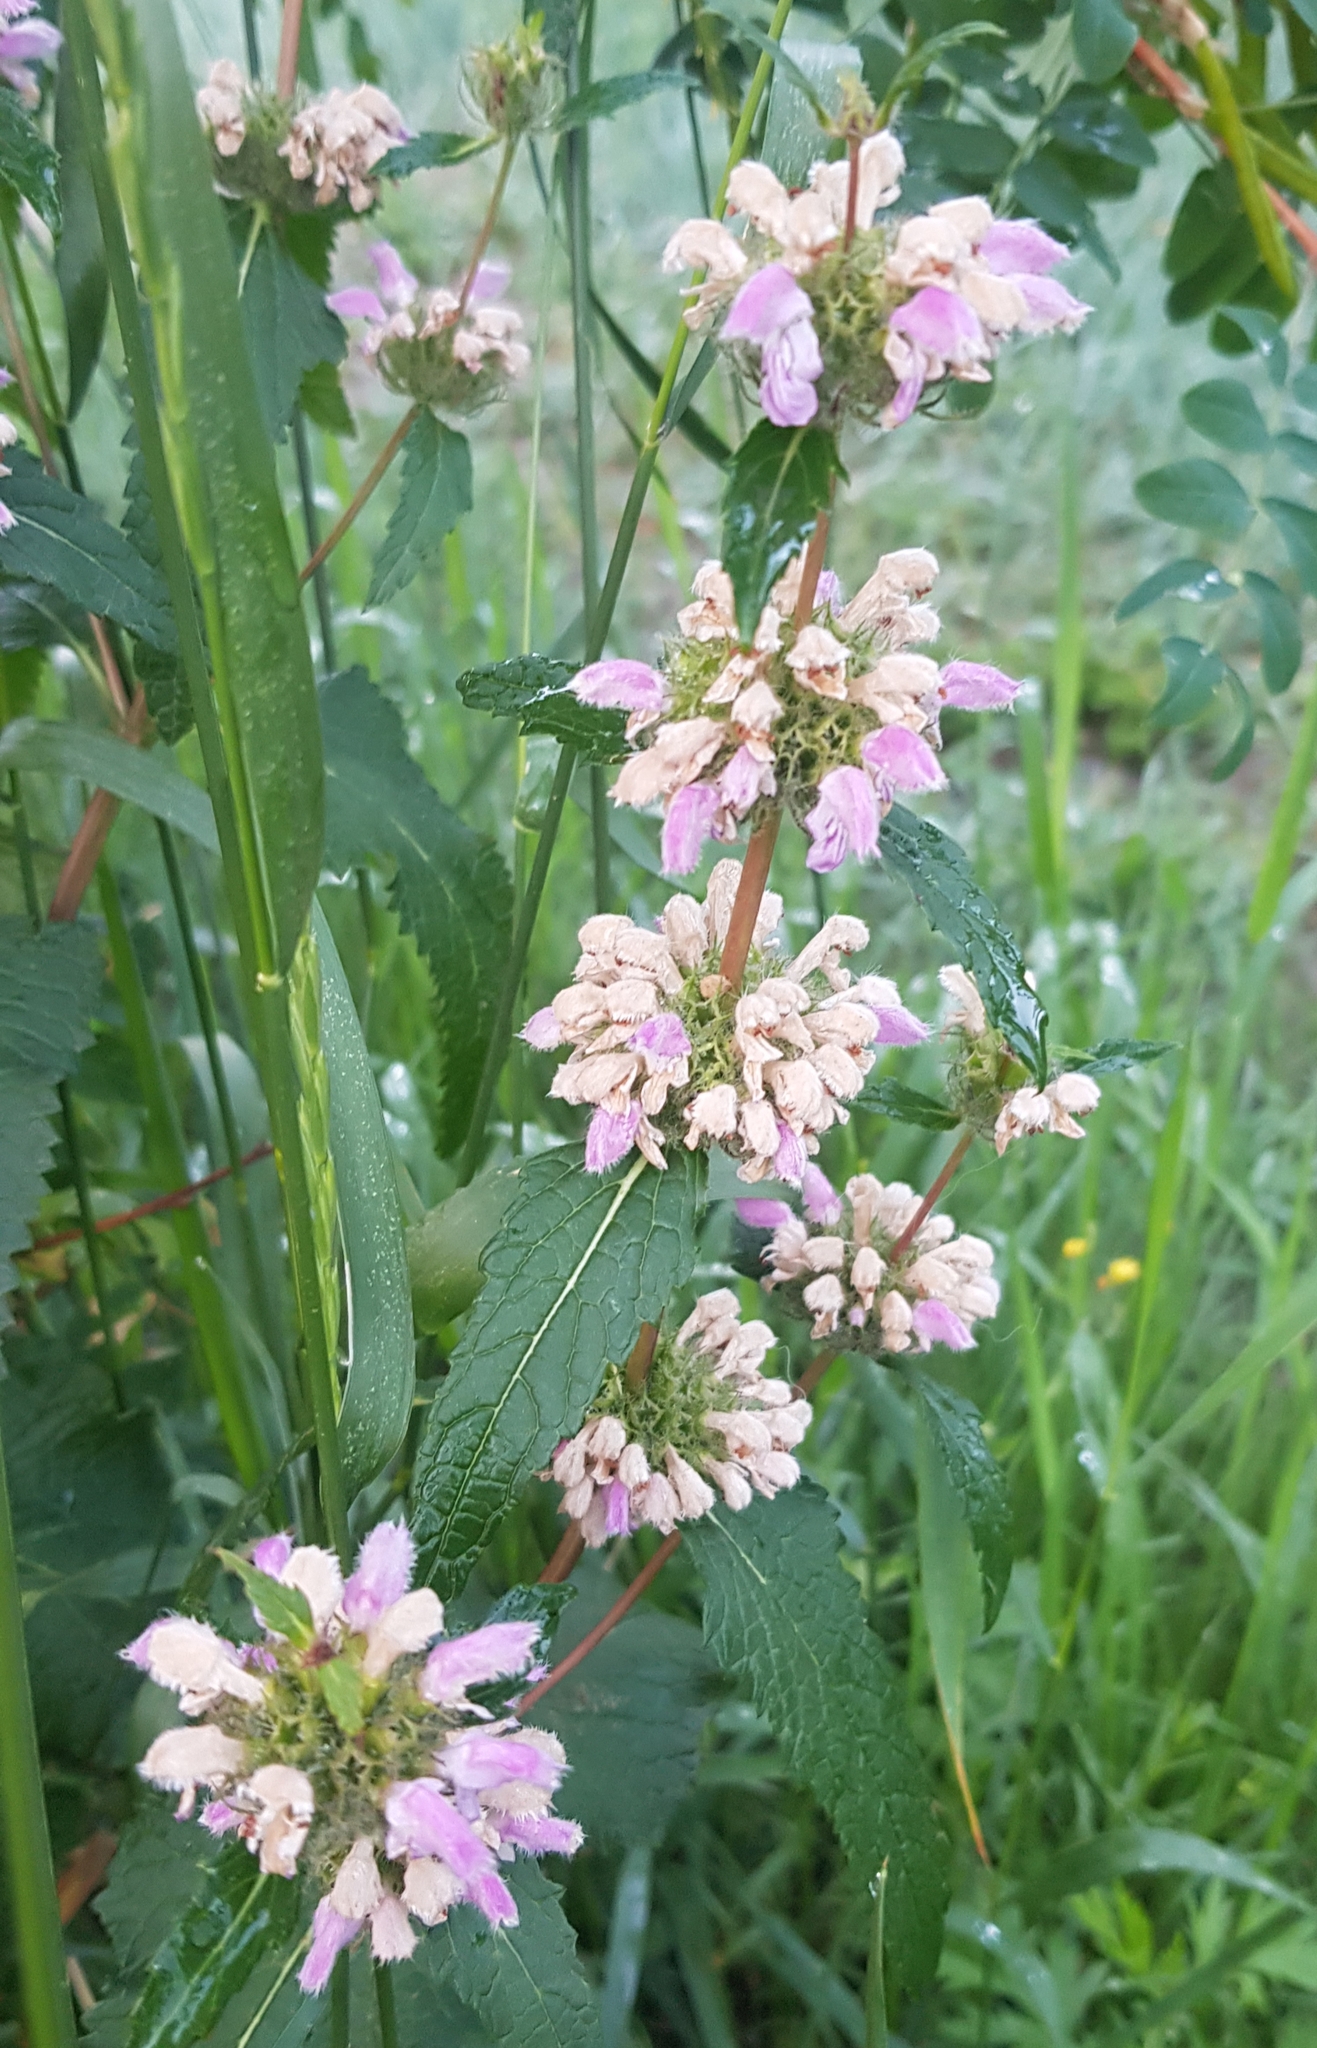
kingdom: Plantae
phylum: Tracheophyta
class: Magnoliopsida
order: Lamiales
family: Lamiaceae
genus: Phlomoides
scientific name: Phlomoides tuberosa
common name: Tuberous jerusalem sage
